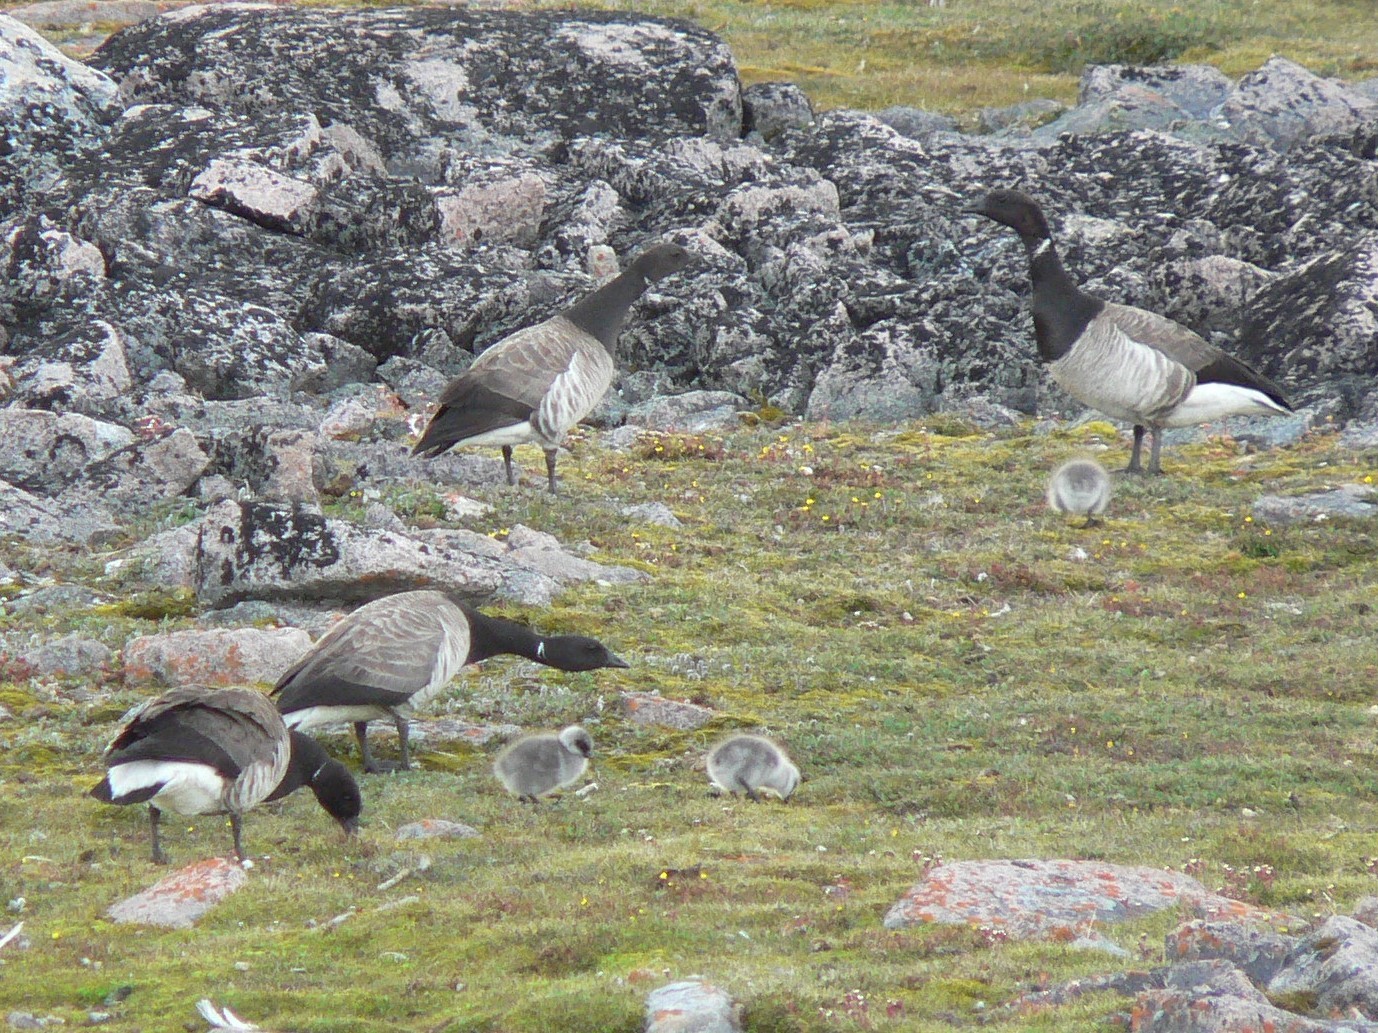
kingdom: Animalia
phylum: Chordata
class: Aves
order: Anseriformes
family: Anatidae
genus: Branta
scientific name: Branta bernicla
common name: Brant goose
